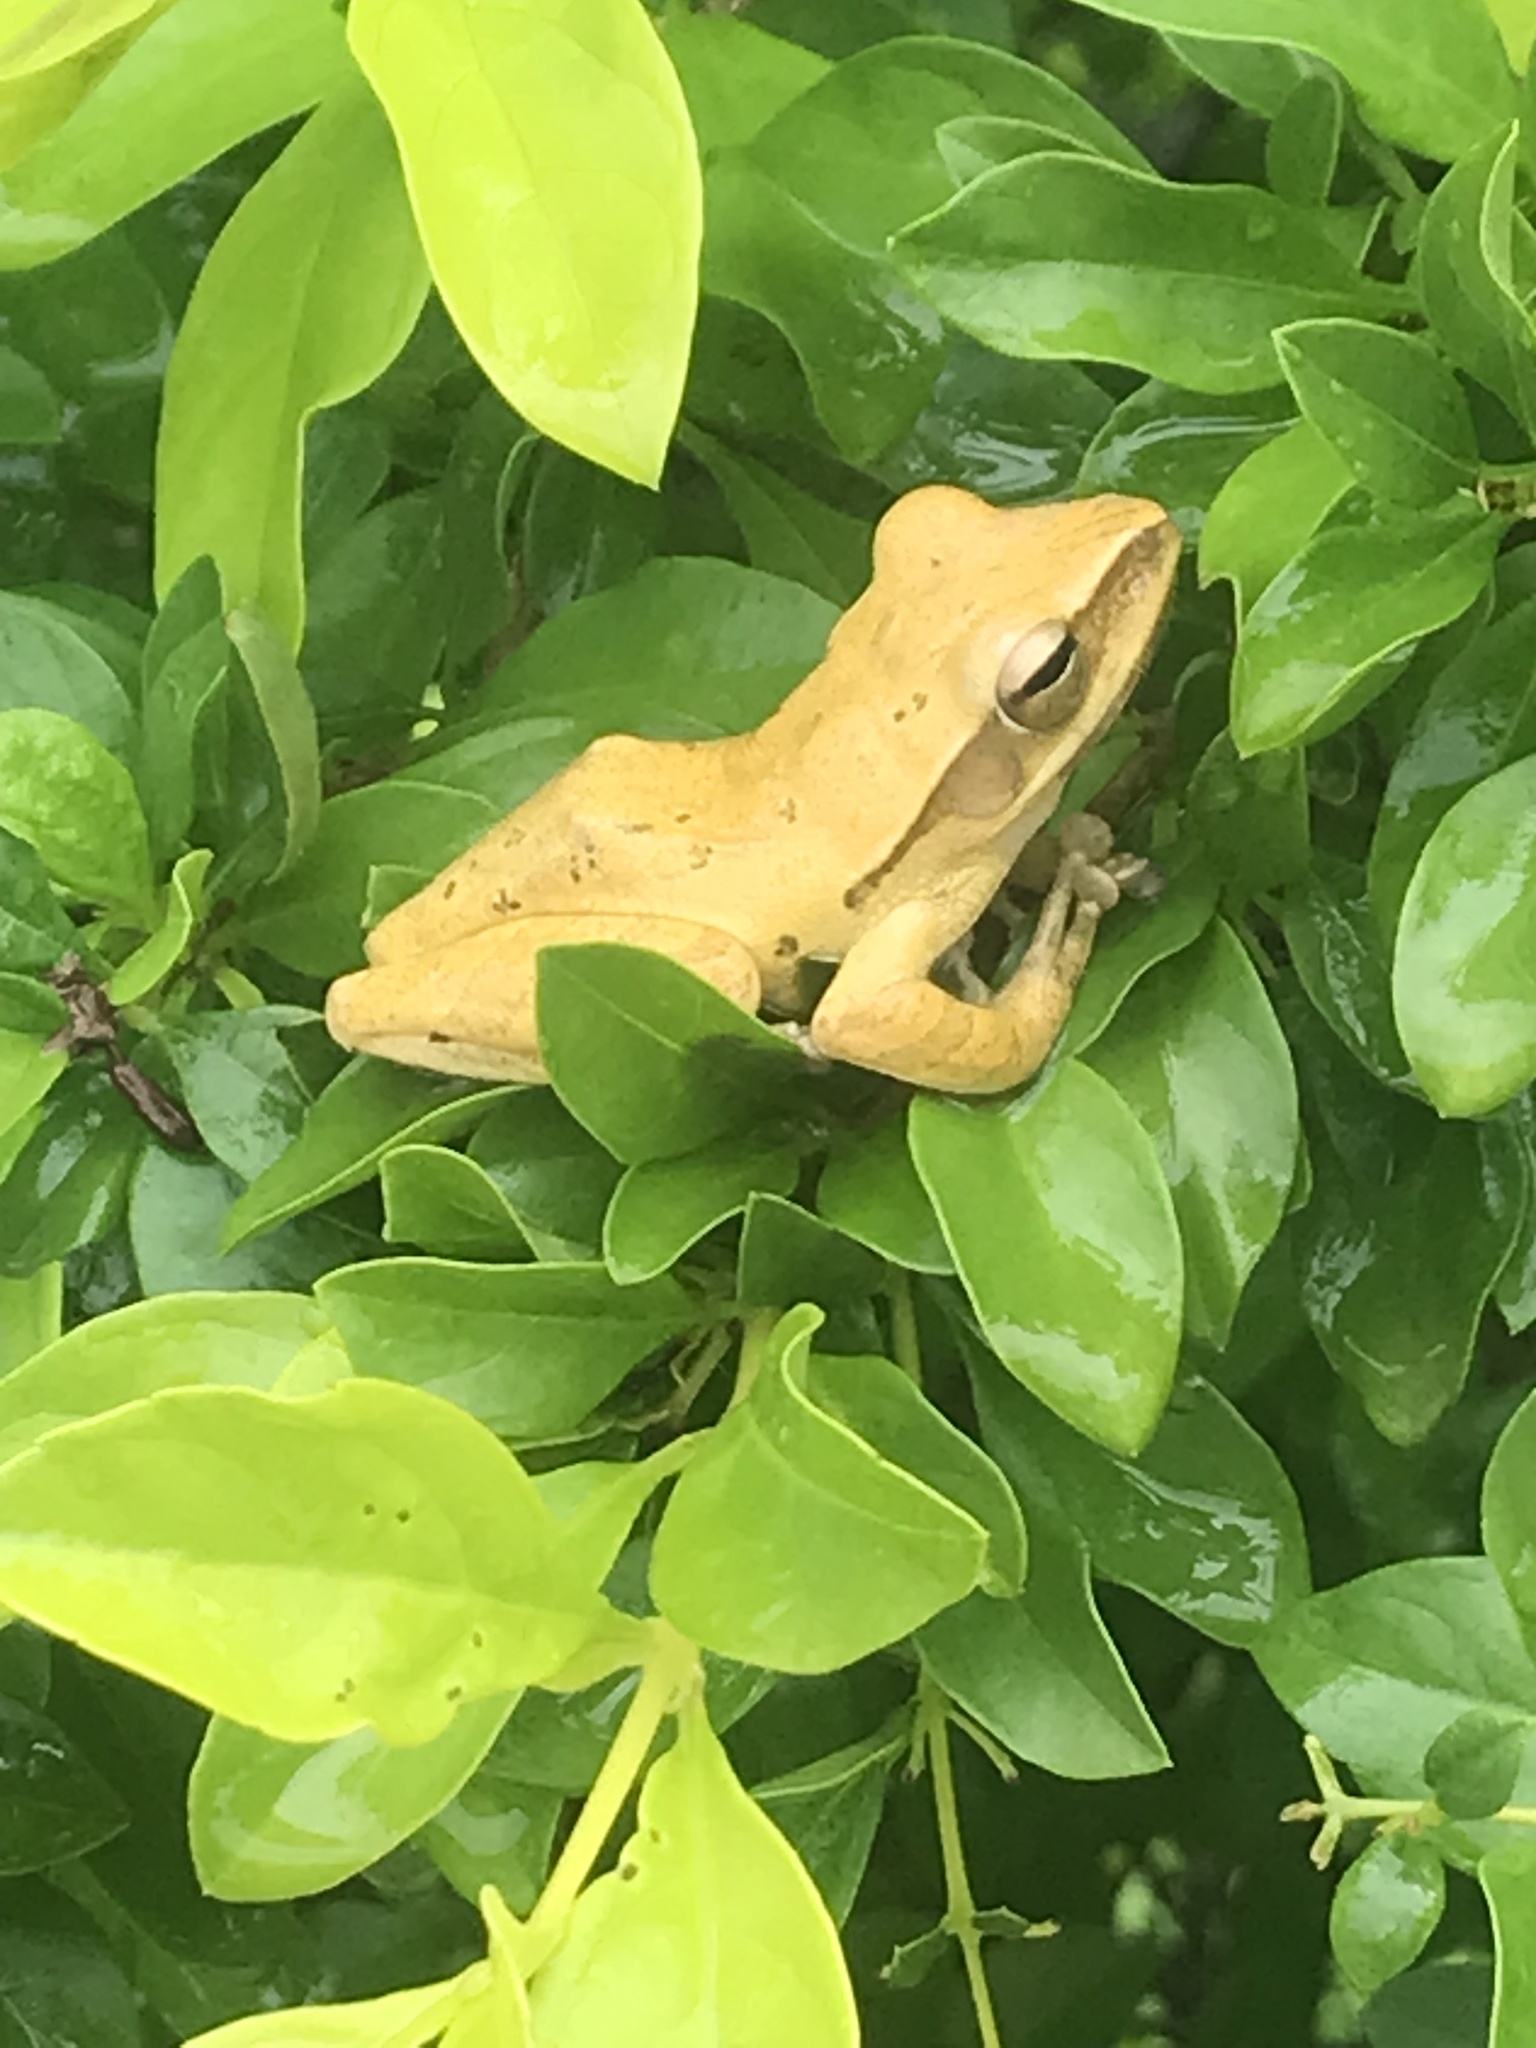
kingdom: Animalia
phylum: Chordata
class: Amphibia
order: Anura
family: Rhacophoridae
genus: Polypedates
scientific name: Polypedates megacephalus
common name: Hong kong whipping frog
